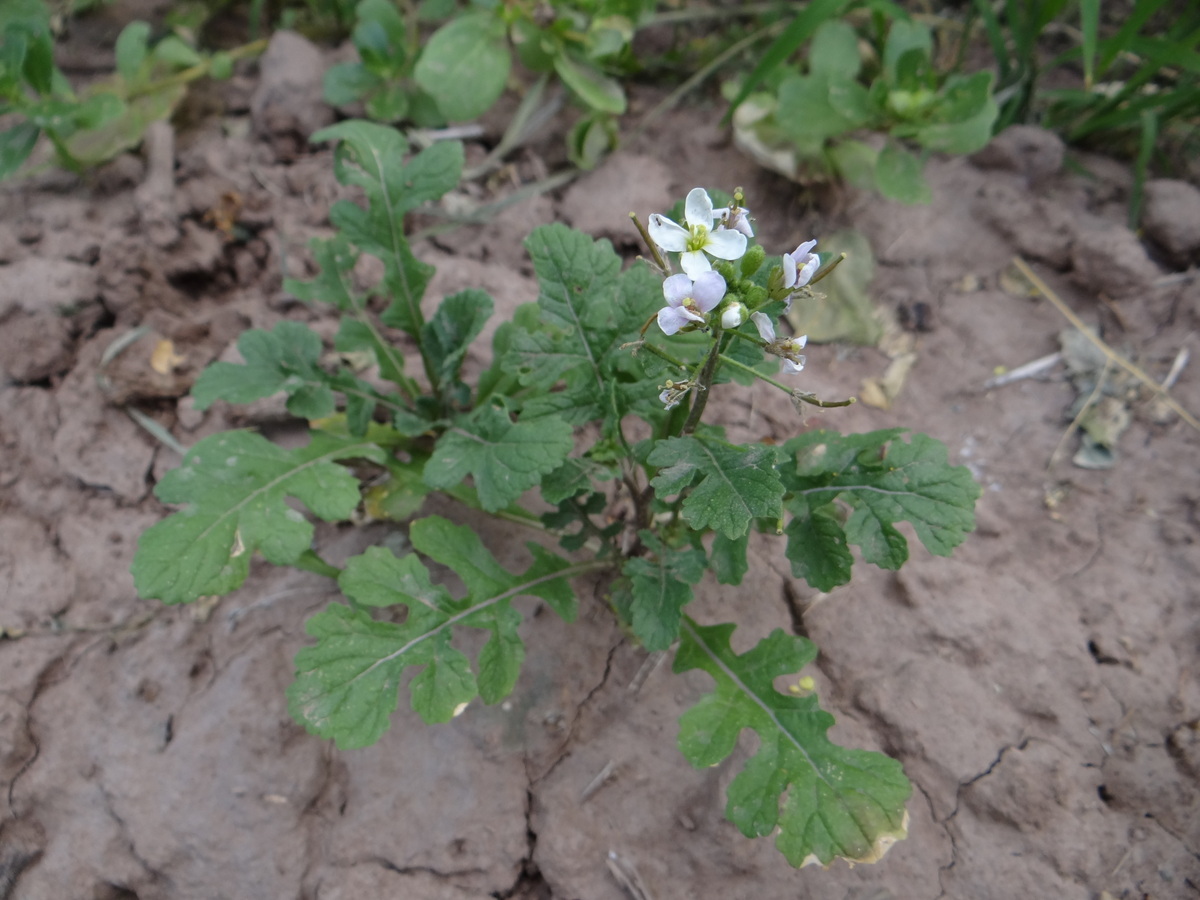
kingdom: Plantae
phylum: Tracheophyta
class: Magnoliopsida
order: Brassicales
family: Brassicaceae
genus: Diplotaxis
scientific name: Diplotaxis erucoides
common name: White rocket
